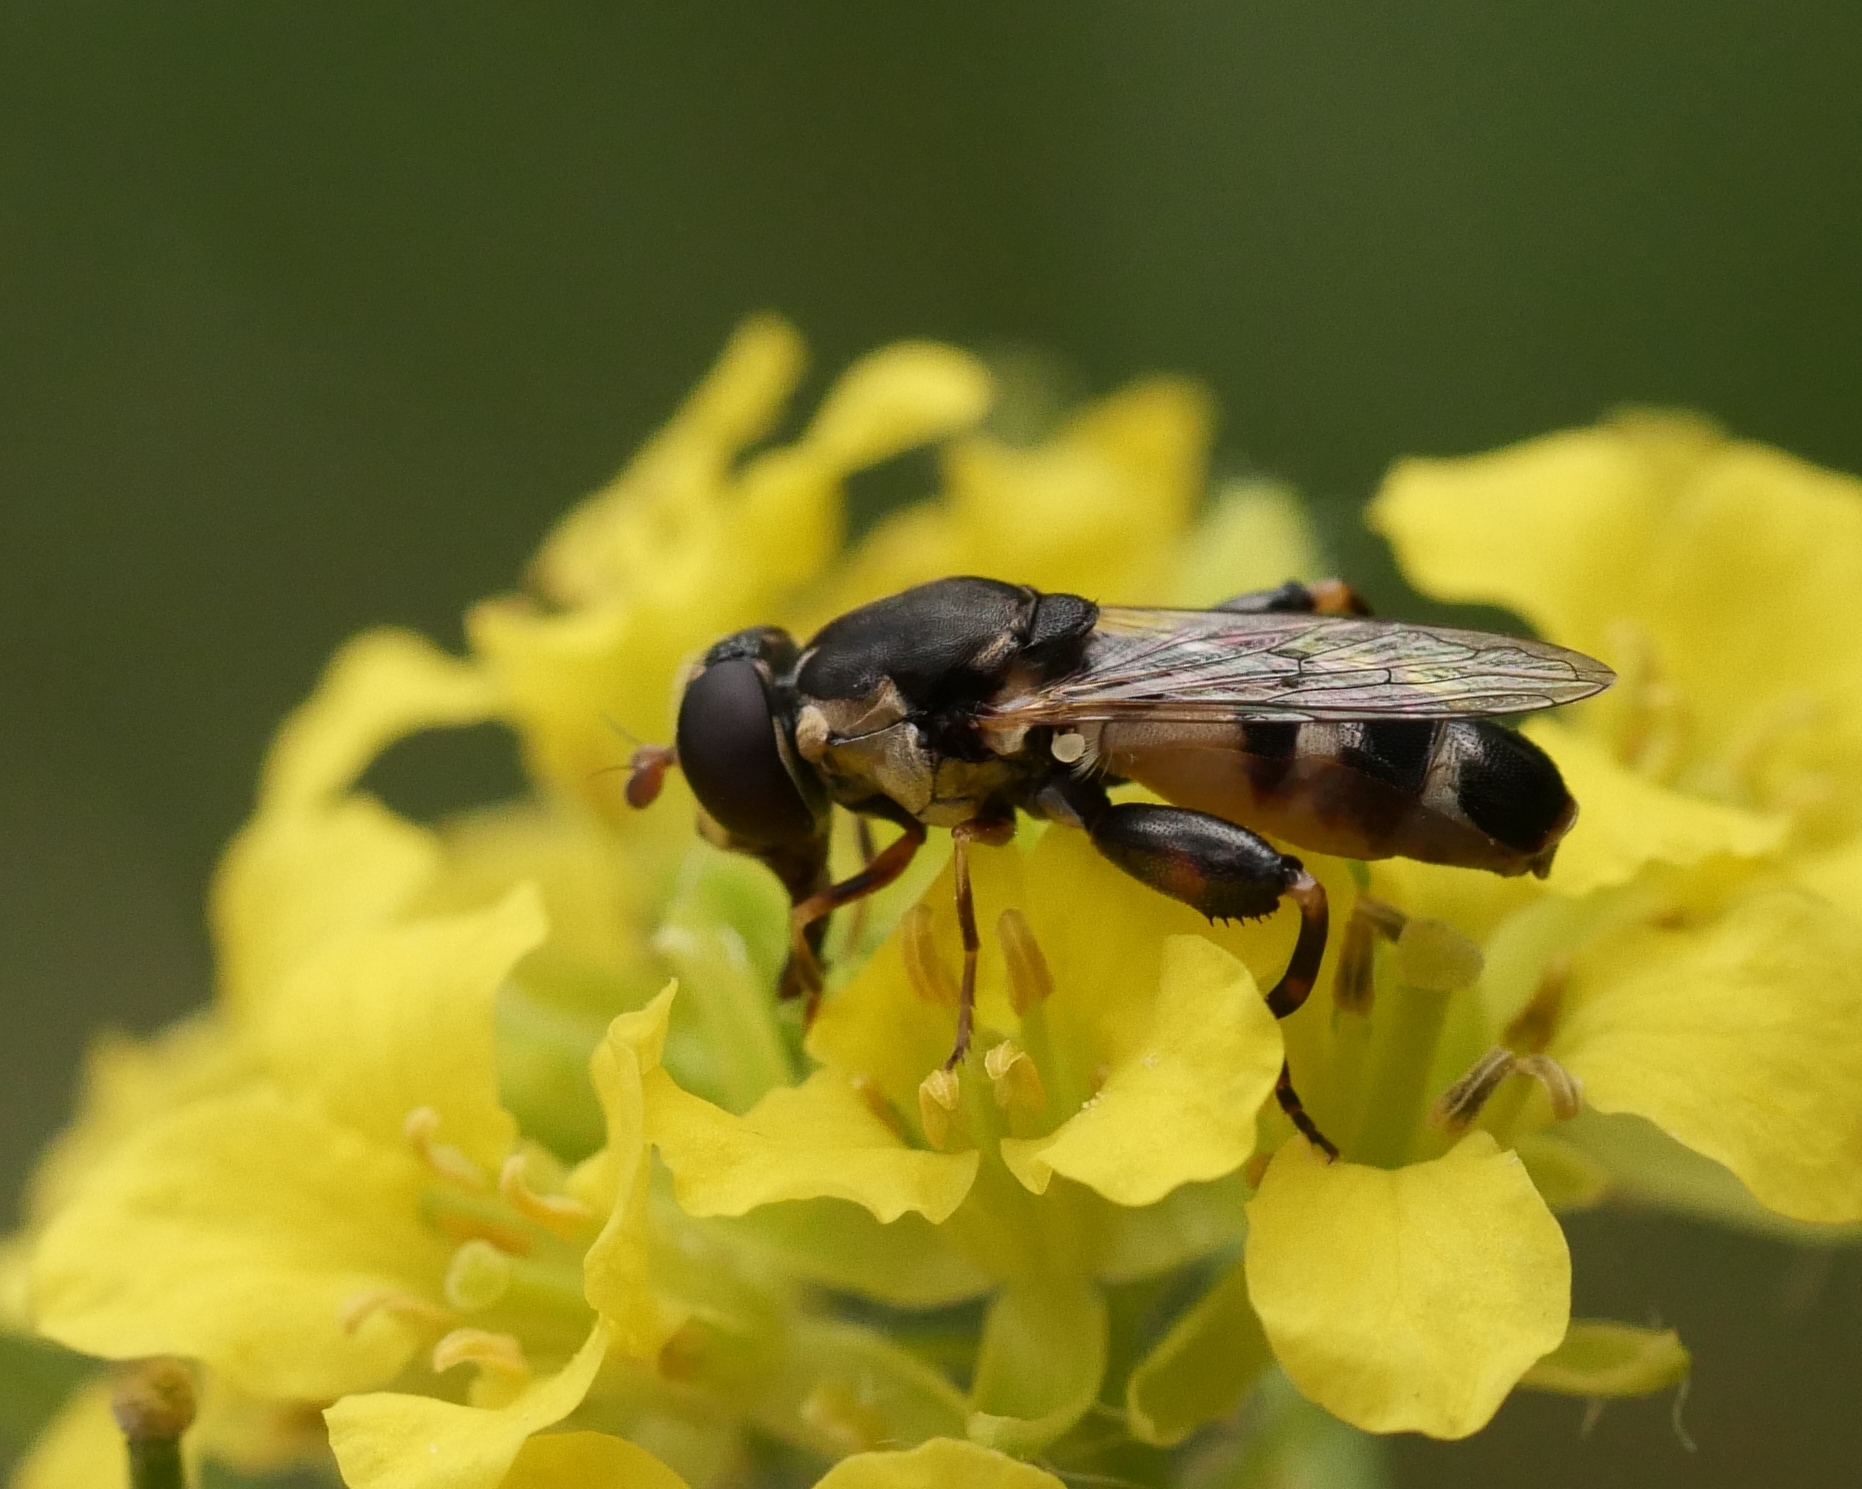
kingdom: Animalia
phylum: Arthropoda
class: Insecta
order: Diptera
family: Syrphidae
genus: Syritta
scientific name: Syritta pipiens
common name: Hover fly
